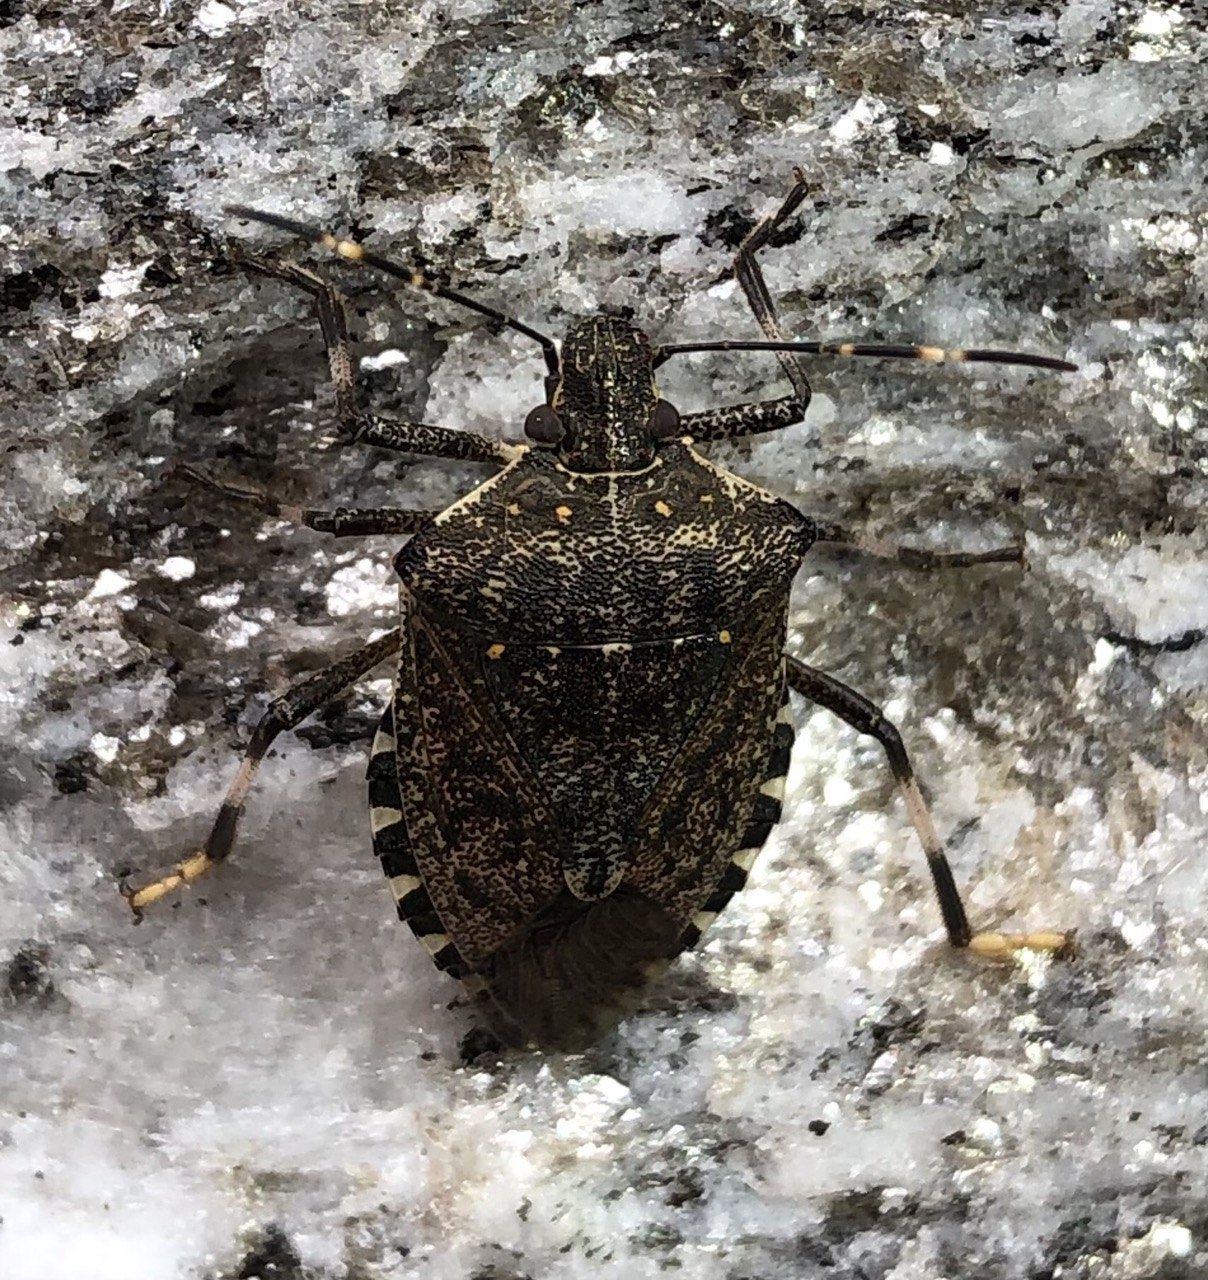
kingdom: Animalia
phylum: Arthropoda
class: Insecta
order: Hemiptera
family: Pentatomidae
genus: Halyomorpha
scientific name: Halyomorpha halys
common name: Brown marmorated stink bug
